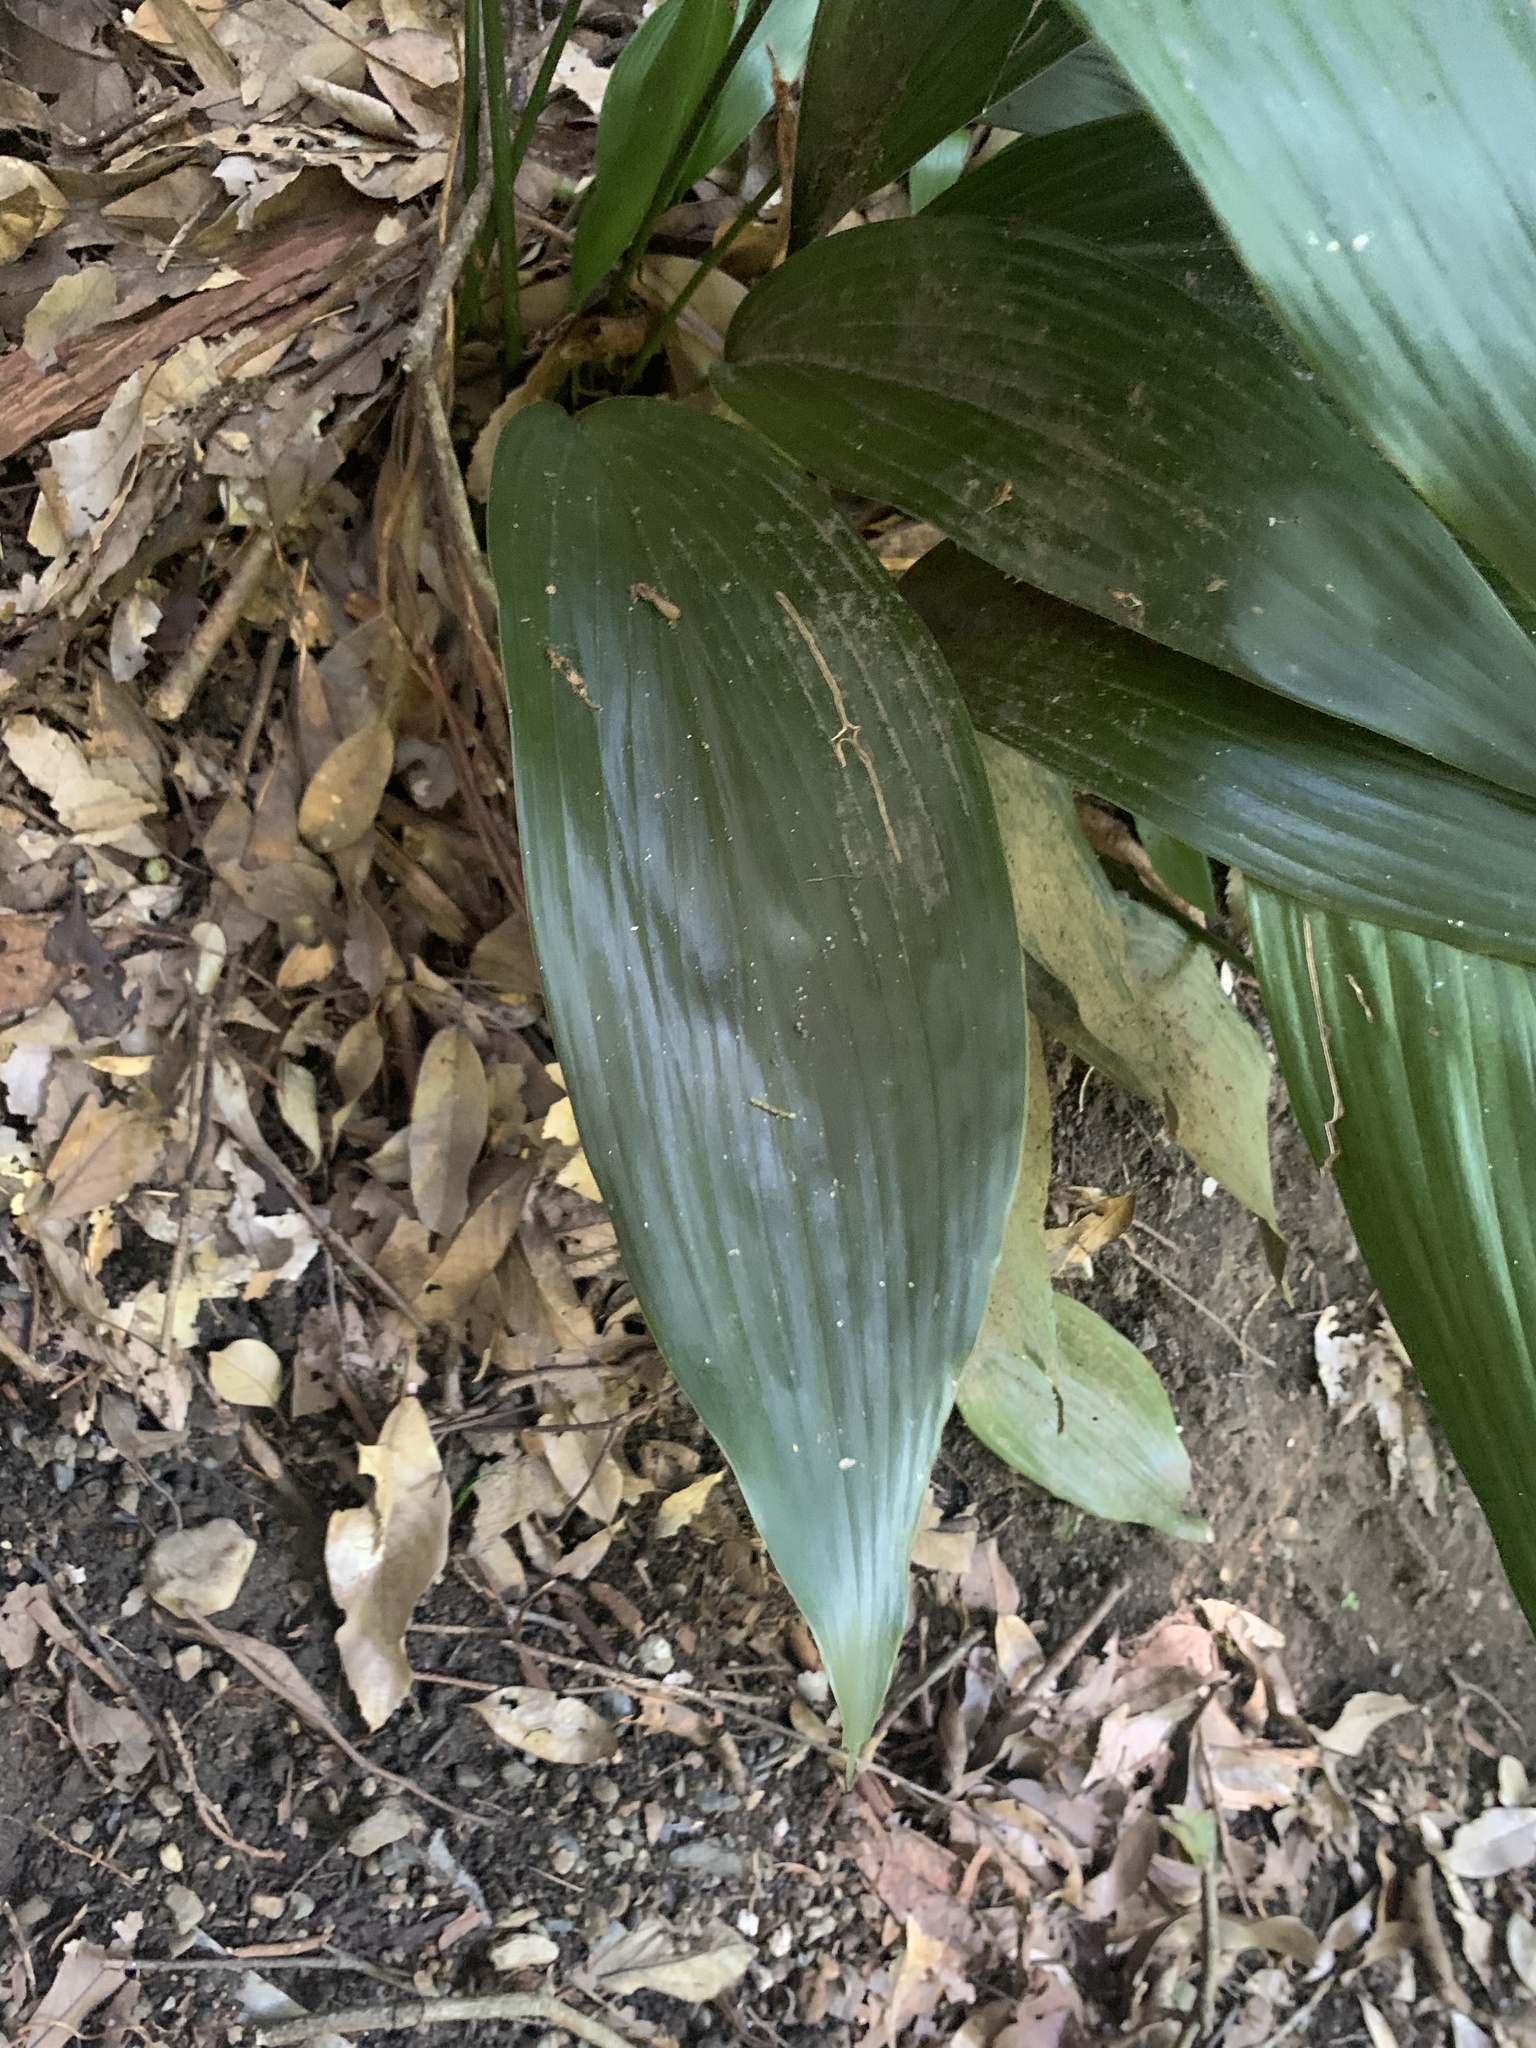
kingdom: Plantae
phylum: Tracheophyta
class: Liliopsida
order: Asparagales
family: Asparagaceae
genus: Aspidistra
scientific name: Aspidistra elatior
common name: Cast-iron-plant
